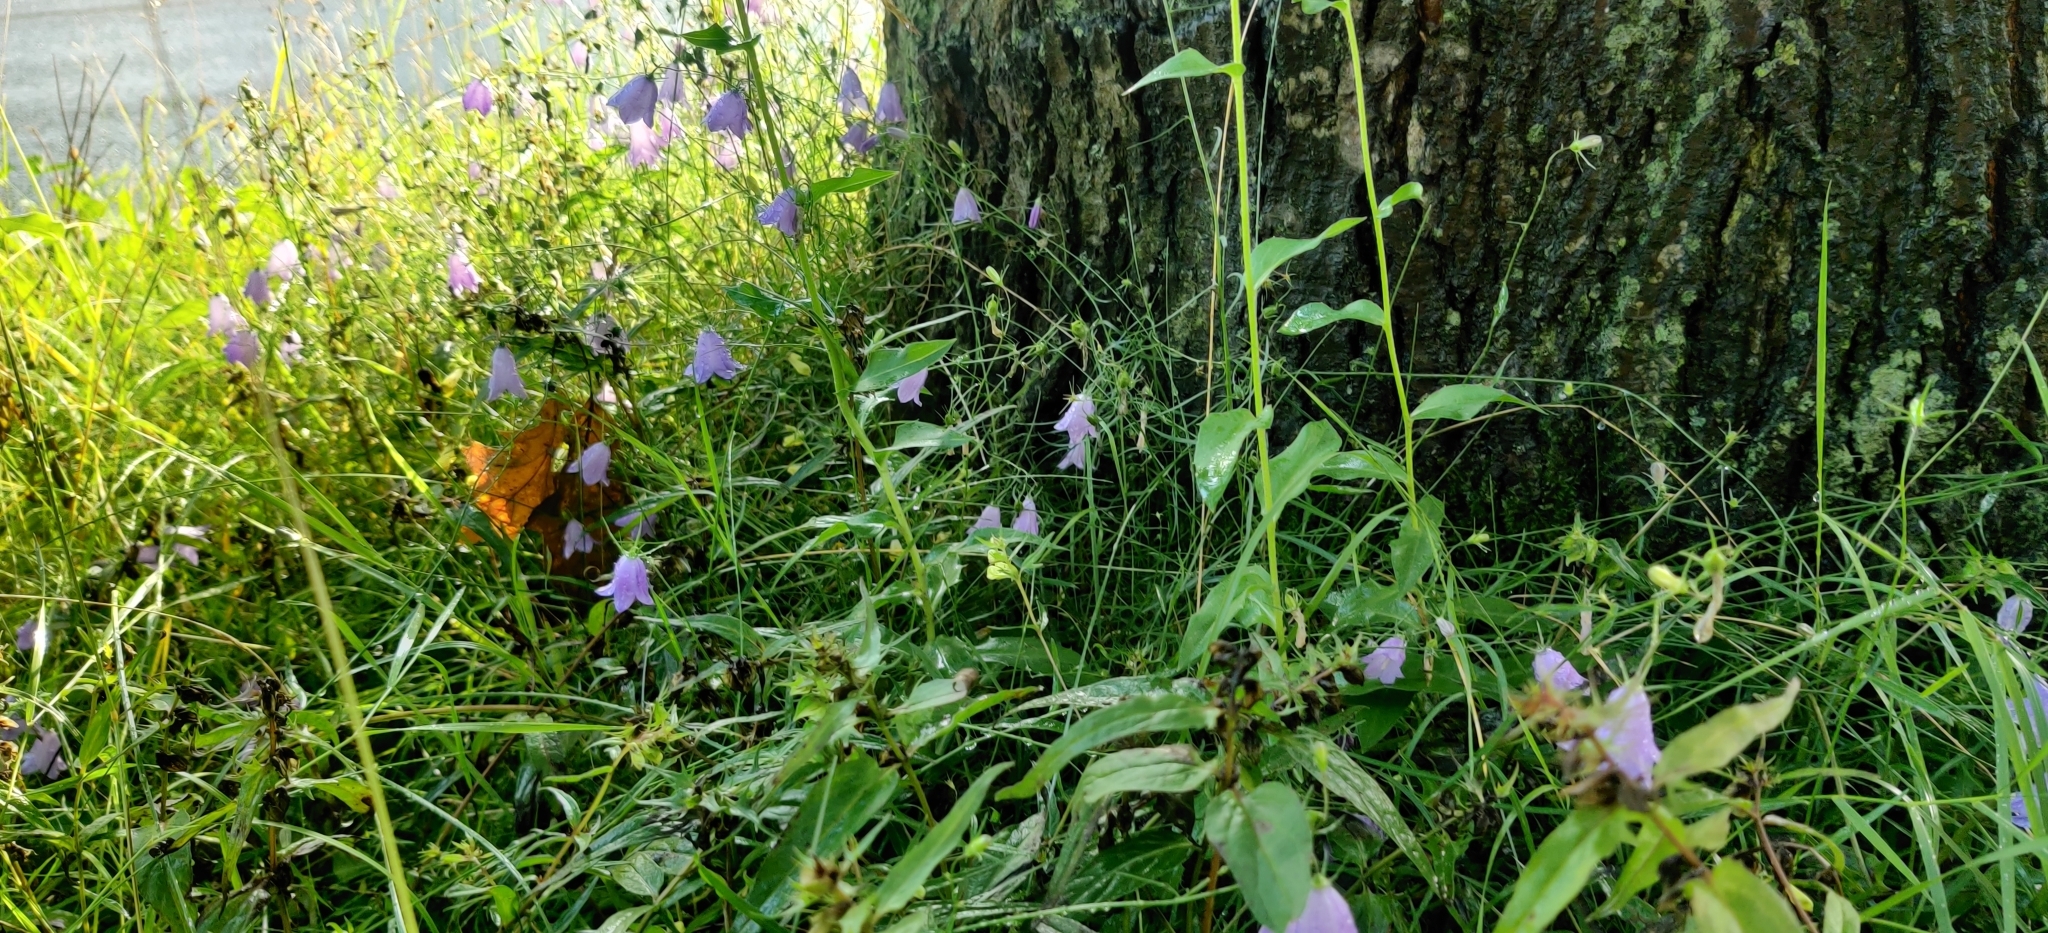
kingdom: Plantae
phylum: Tracheophyta
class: Magnoliopsida
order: Asterales
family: Campanulaceae
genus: Campanula
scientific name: Campanula rotundifolia
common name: Harebell
